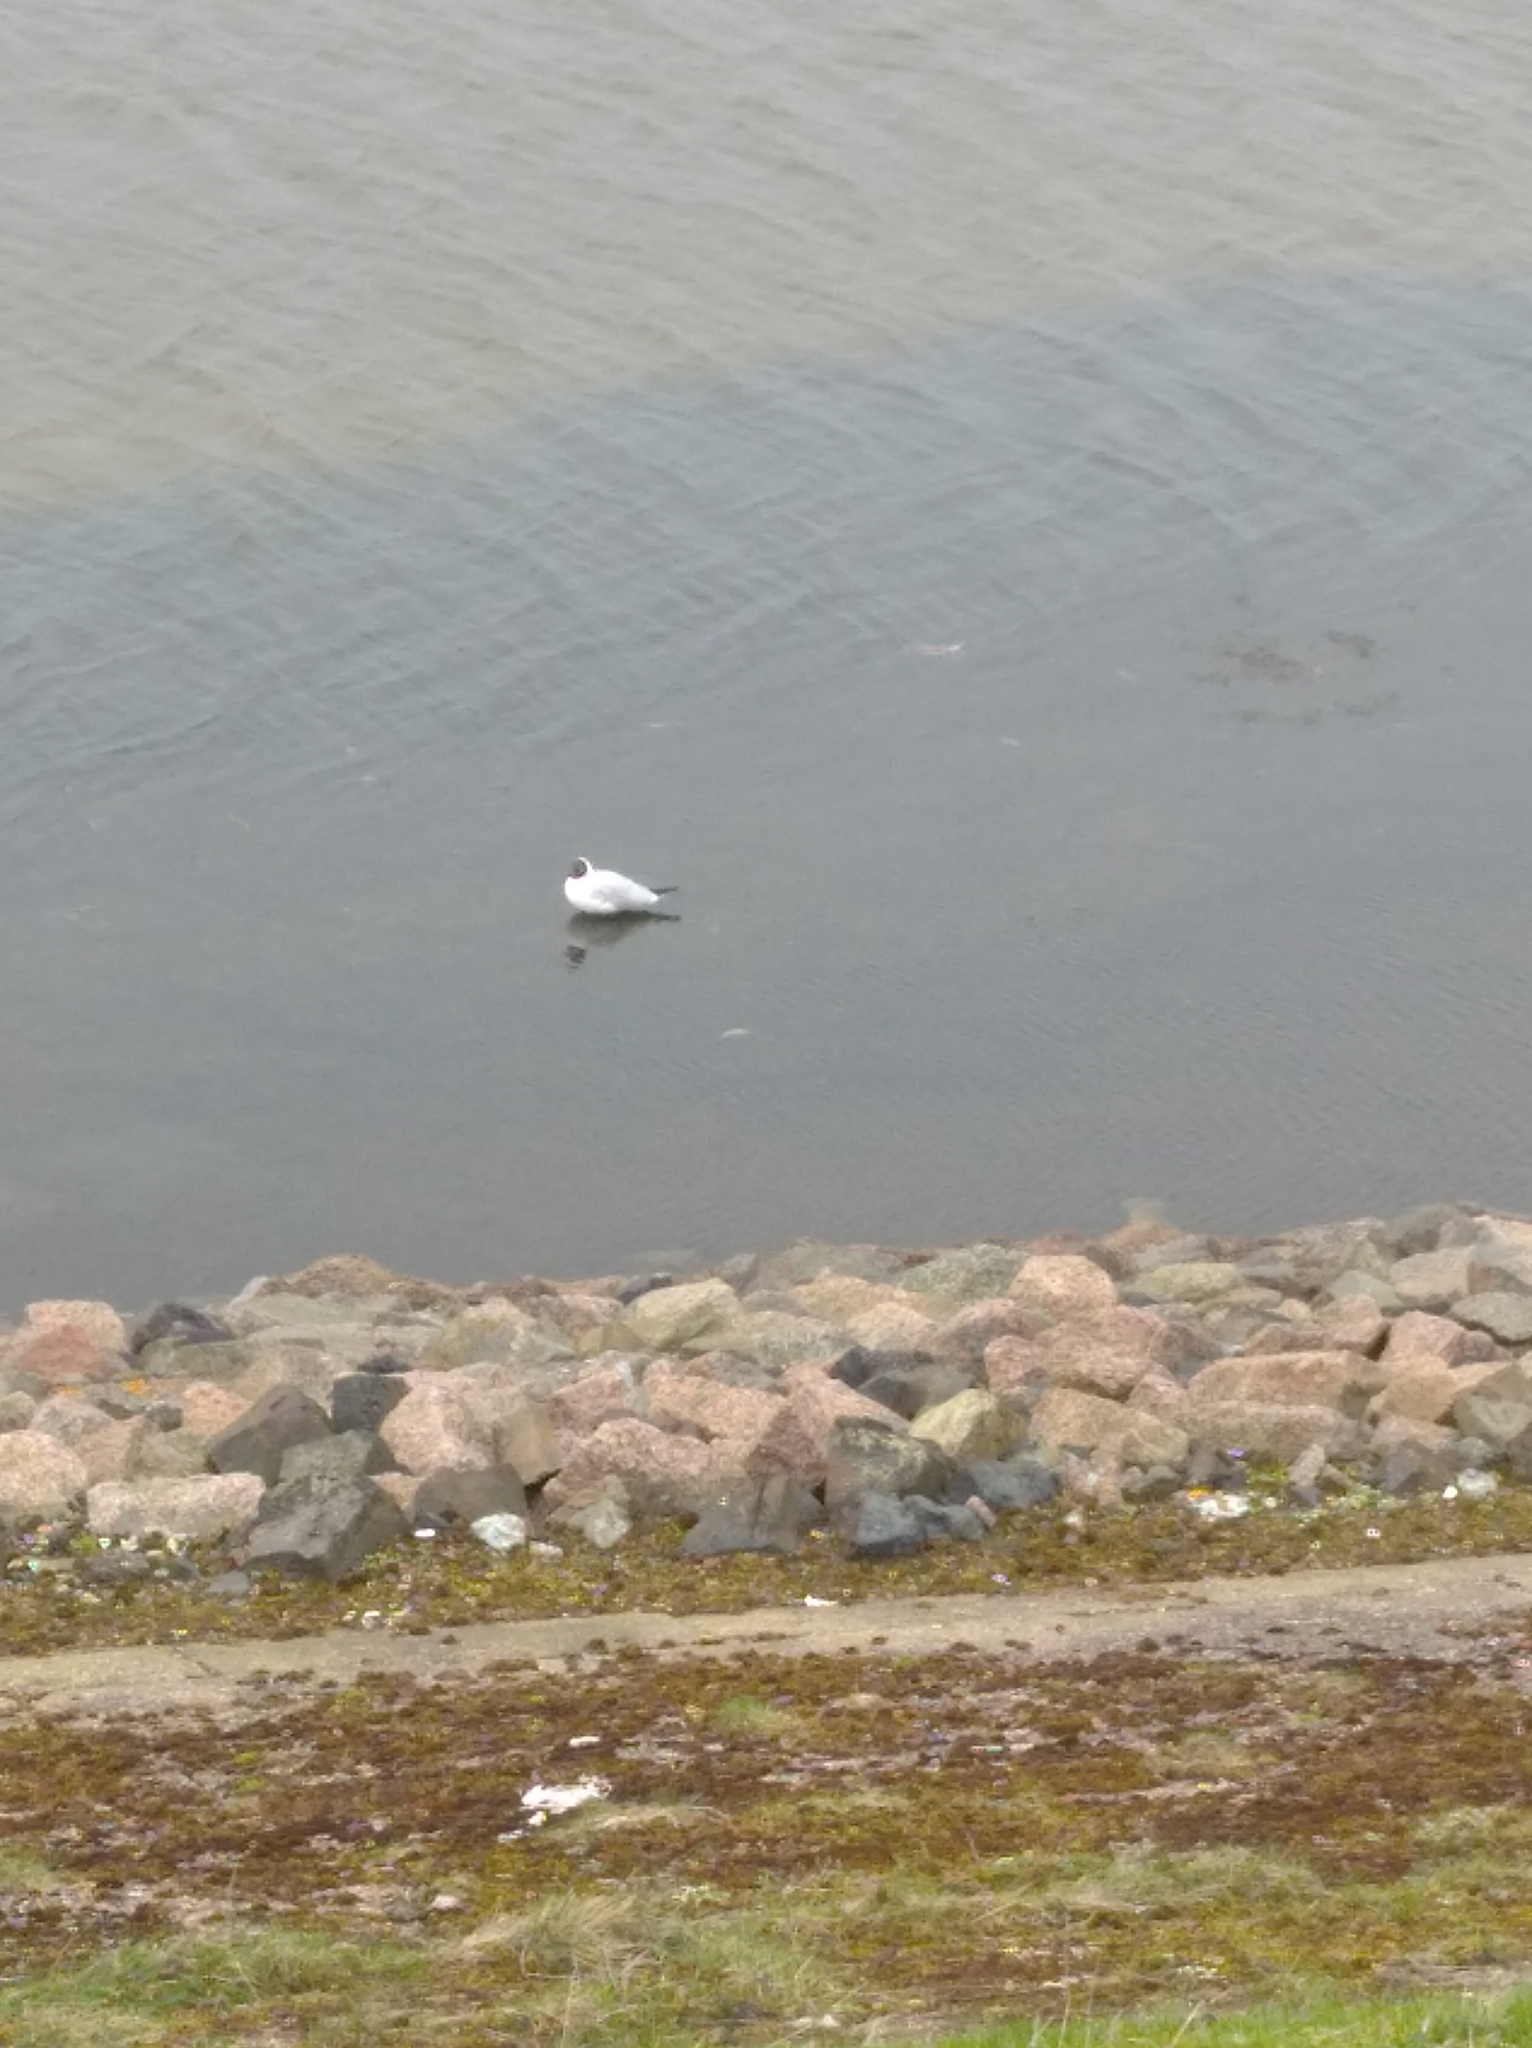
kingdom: Animalia
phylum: Chordata
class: Aves
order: Charadriiformes
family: Laridae
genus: Chroicocephalus
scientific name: Chroicocephalus ridibundus
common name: Black-headed gull
